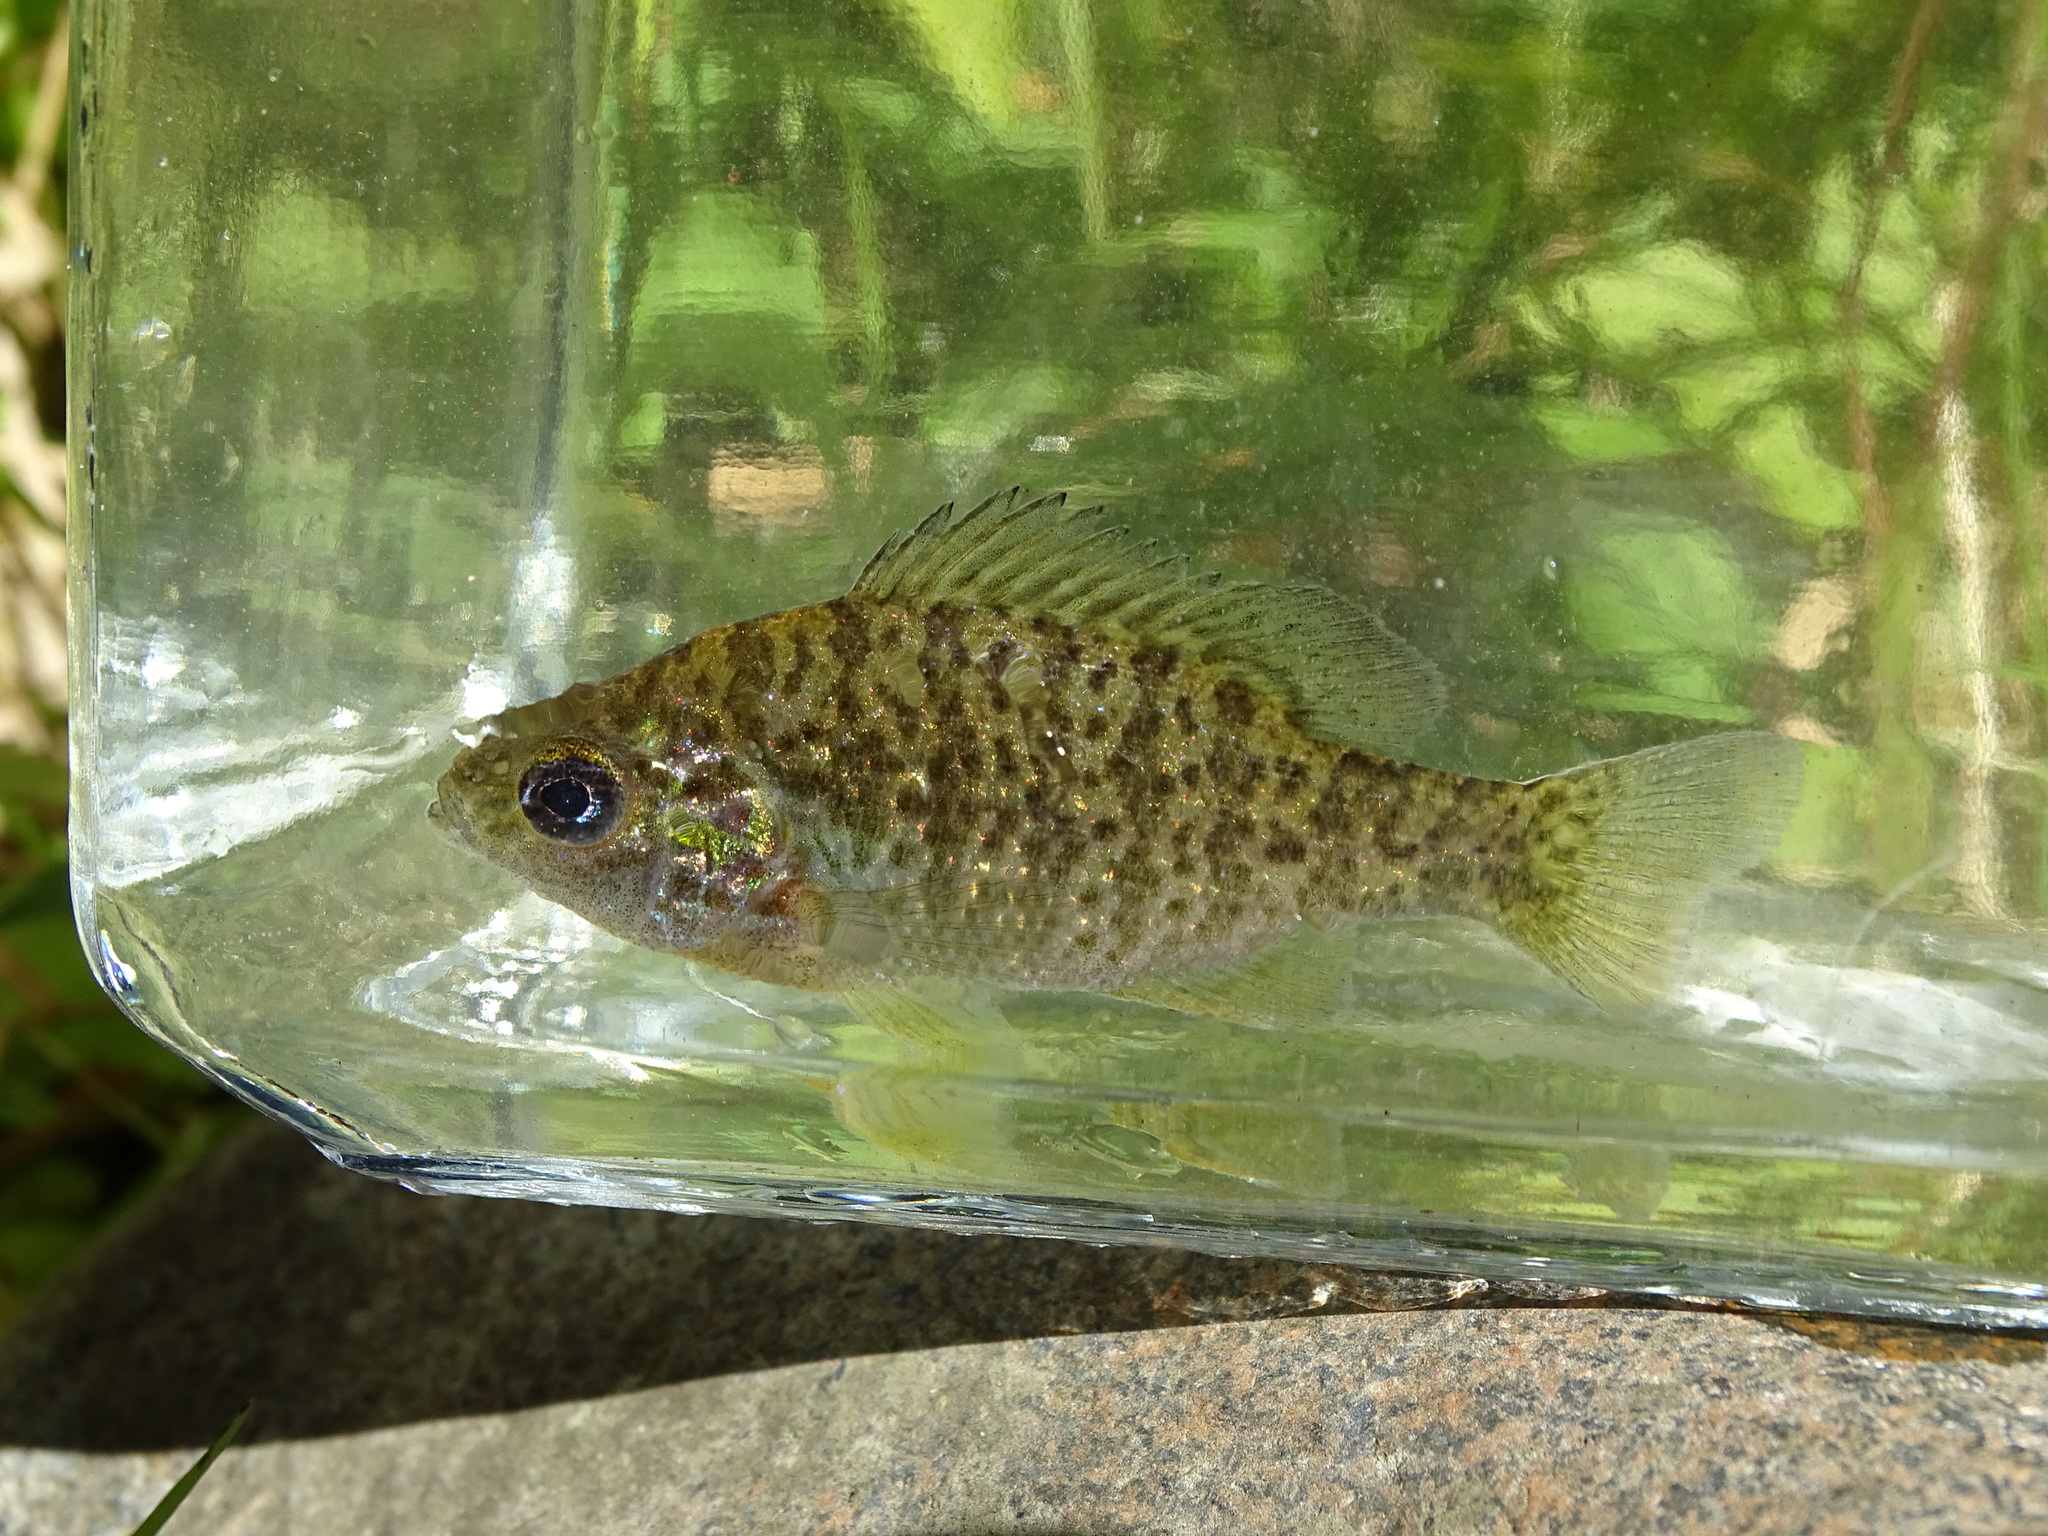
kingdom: Animalia
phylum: Chordata
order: Perciformes
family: Centrarchidae
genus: Lepomis
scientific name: Lepomis gibbosus
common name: Pumpkinseed
